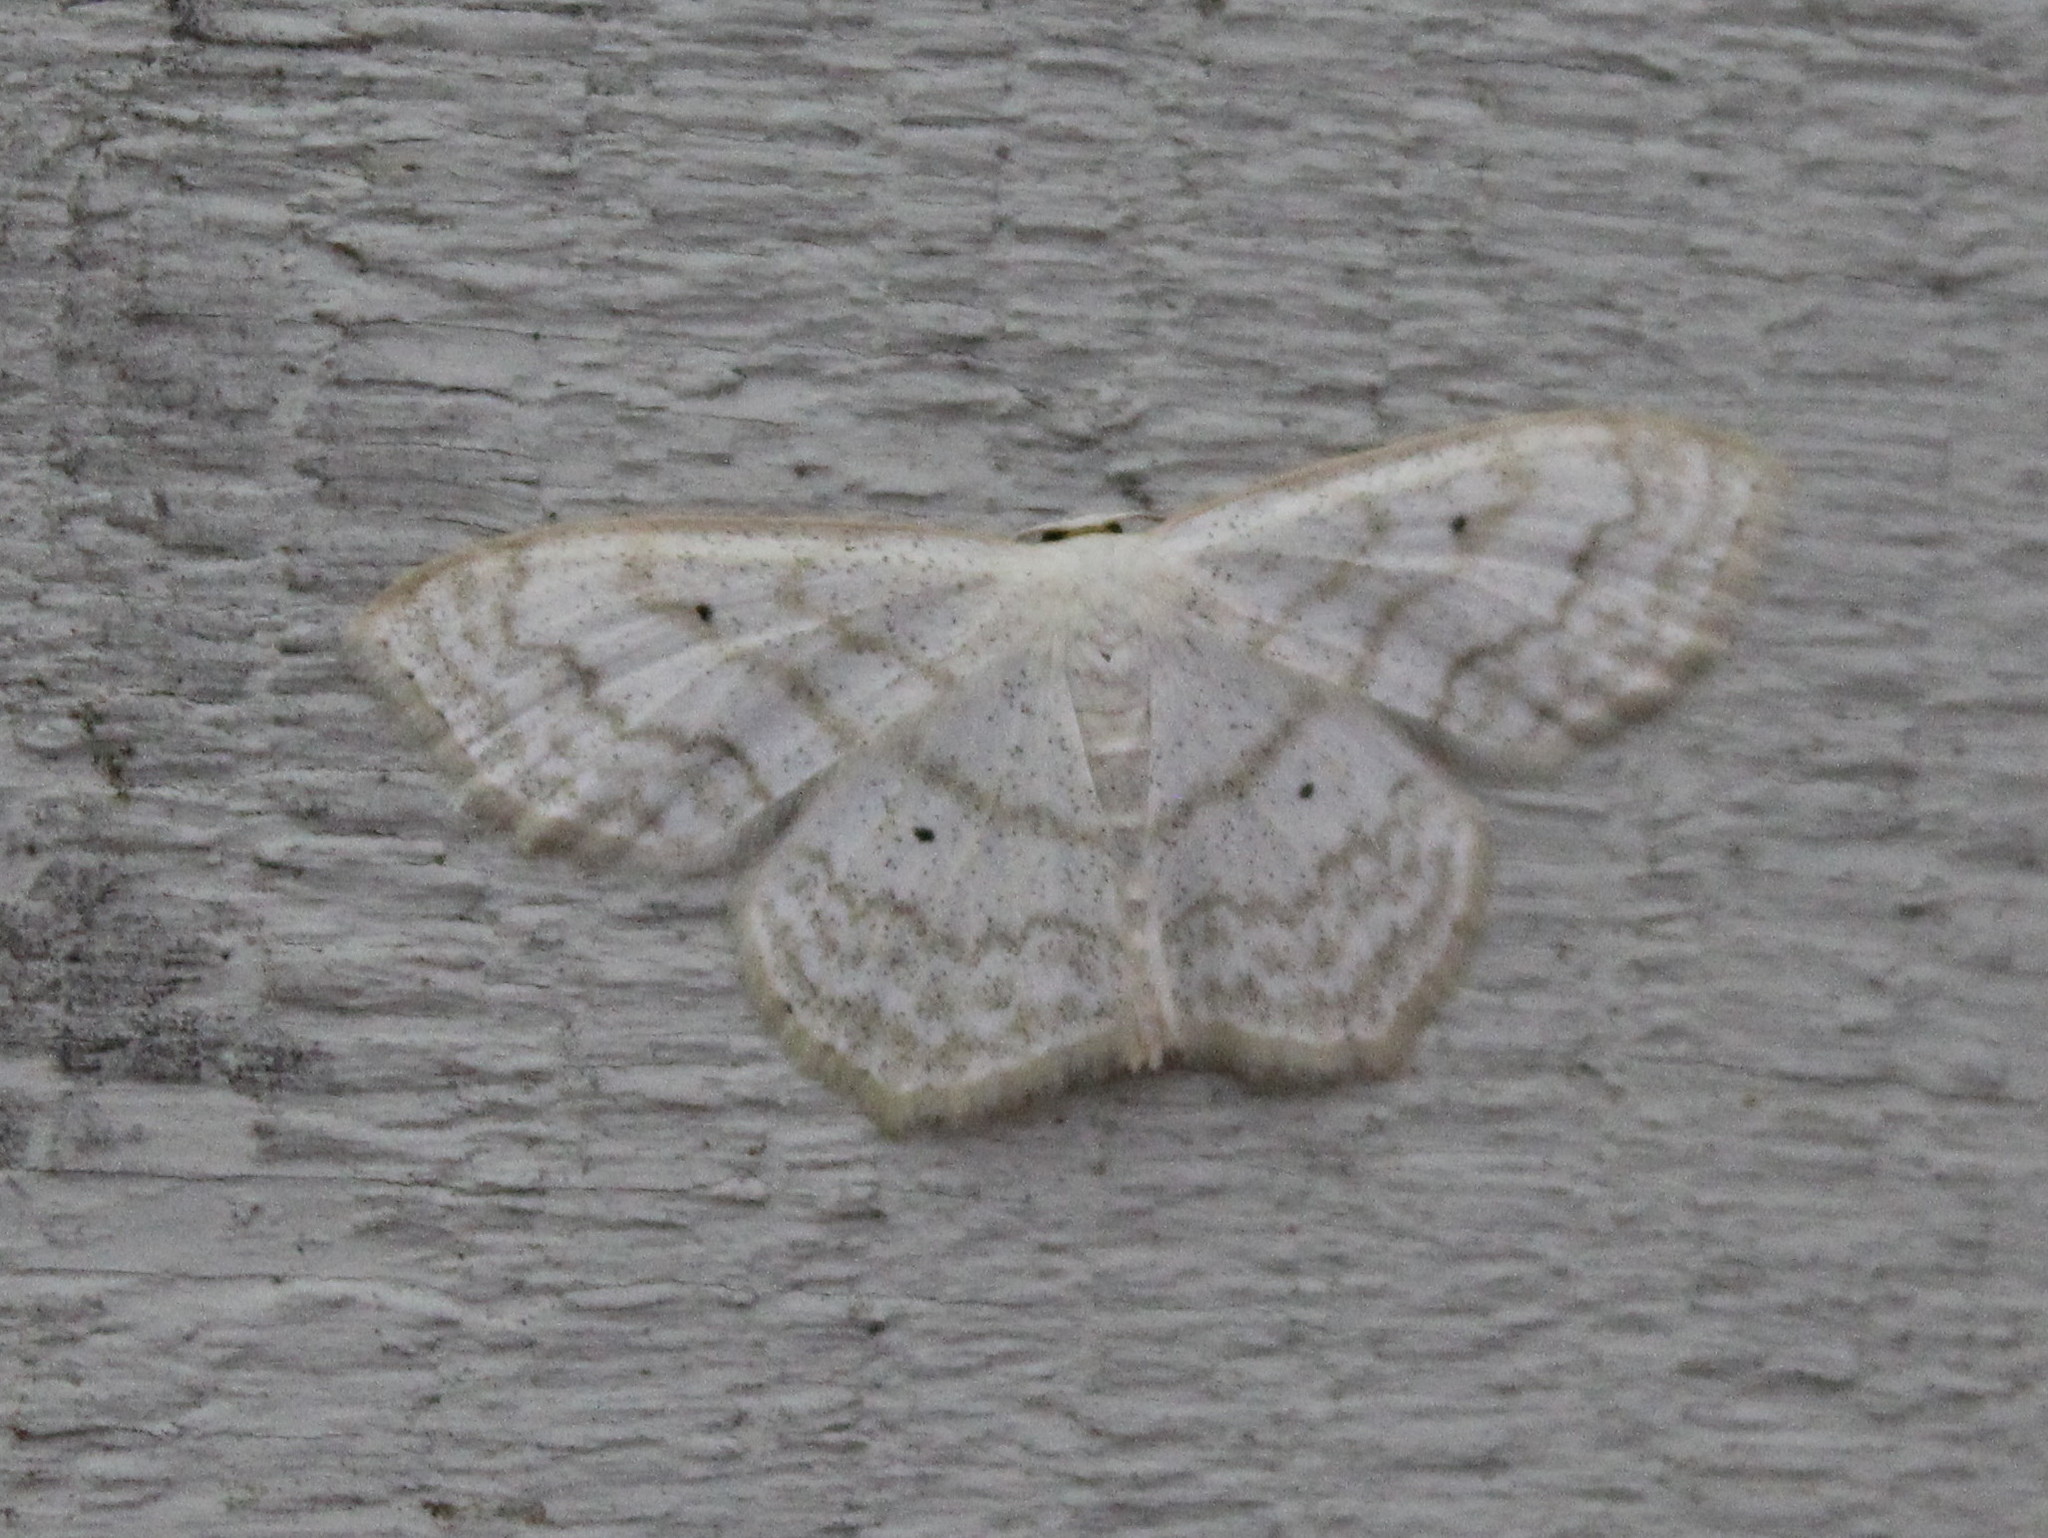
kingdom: Animalia
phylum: Arthropoda
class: Insecta
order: Lepidoptera
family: Geometridae
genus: Scopula
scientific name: Scopula limboundata
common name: Large lace border
